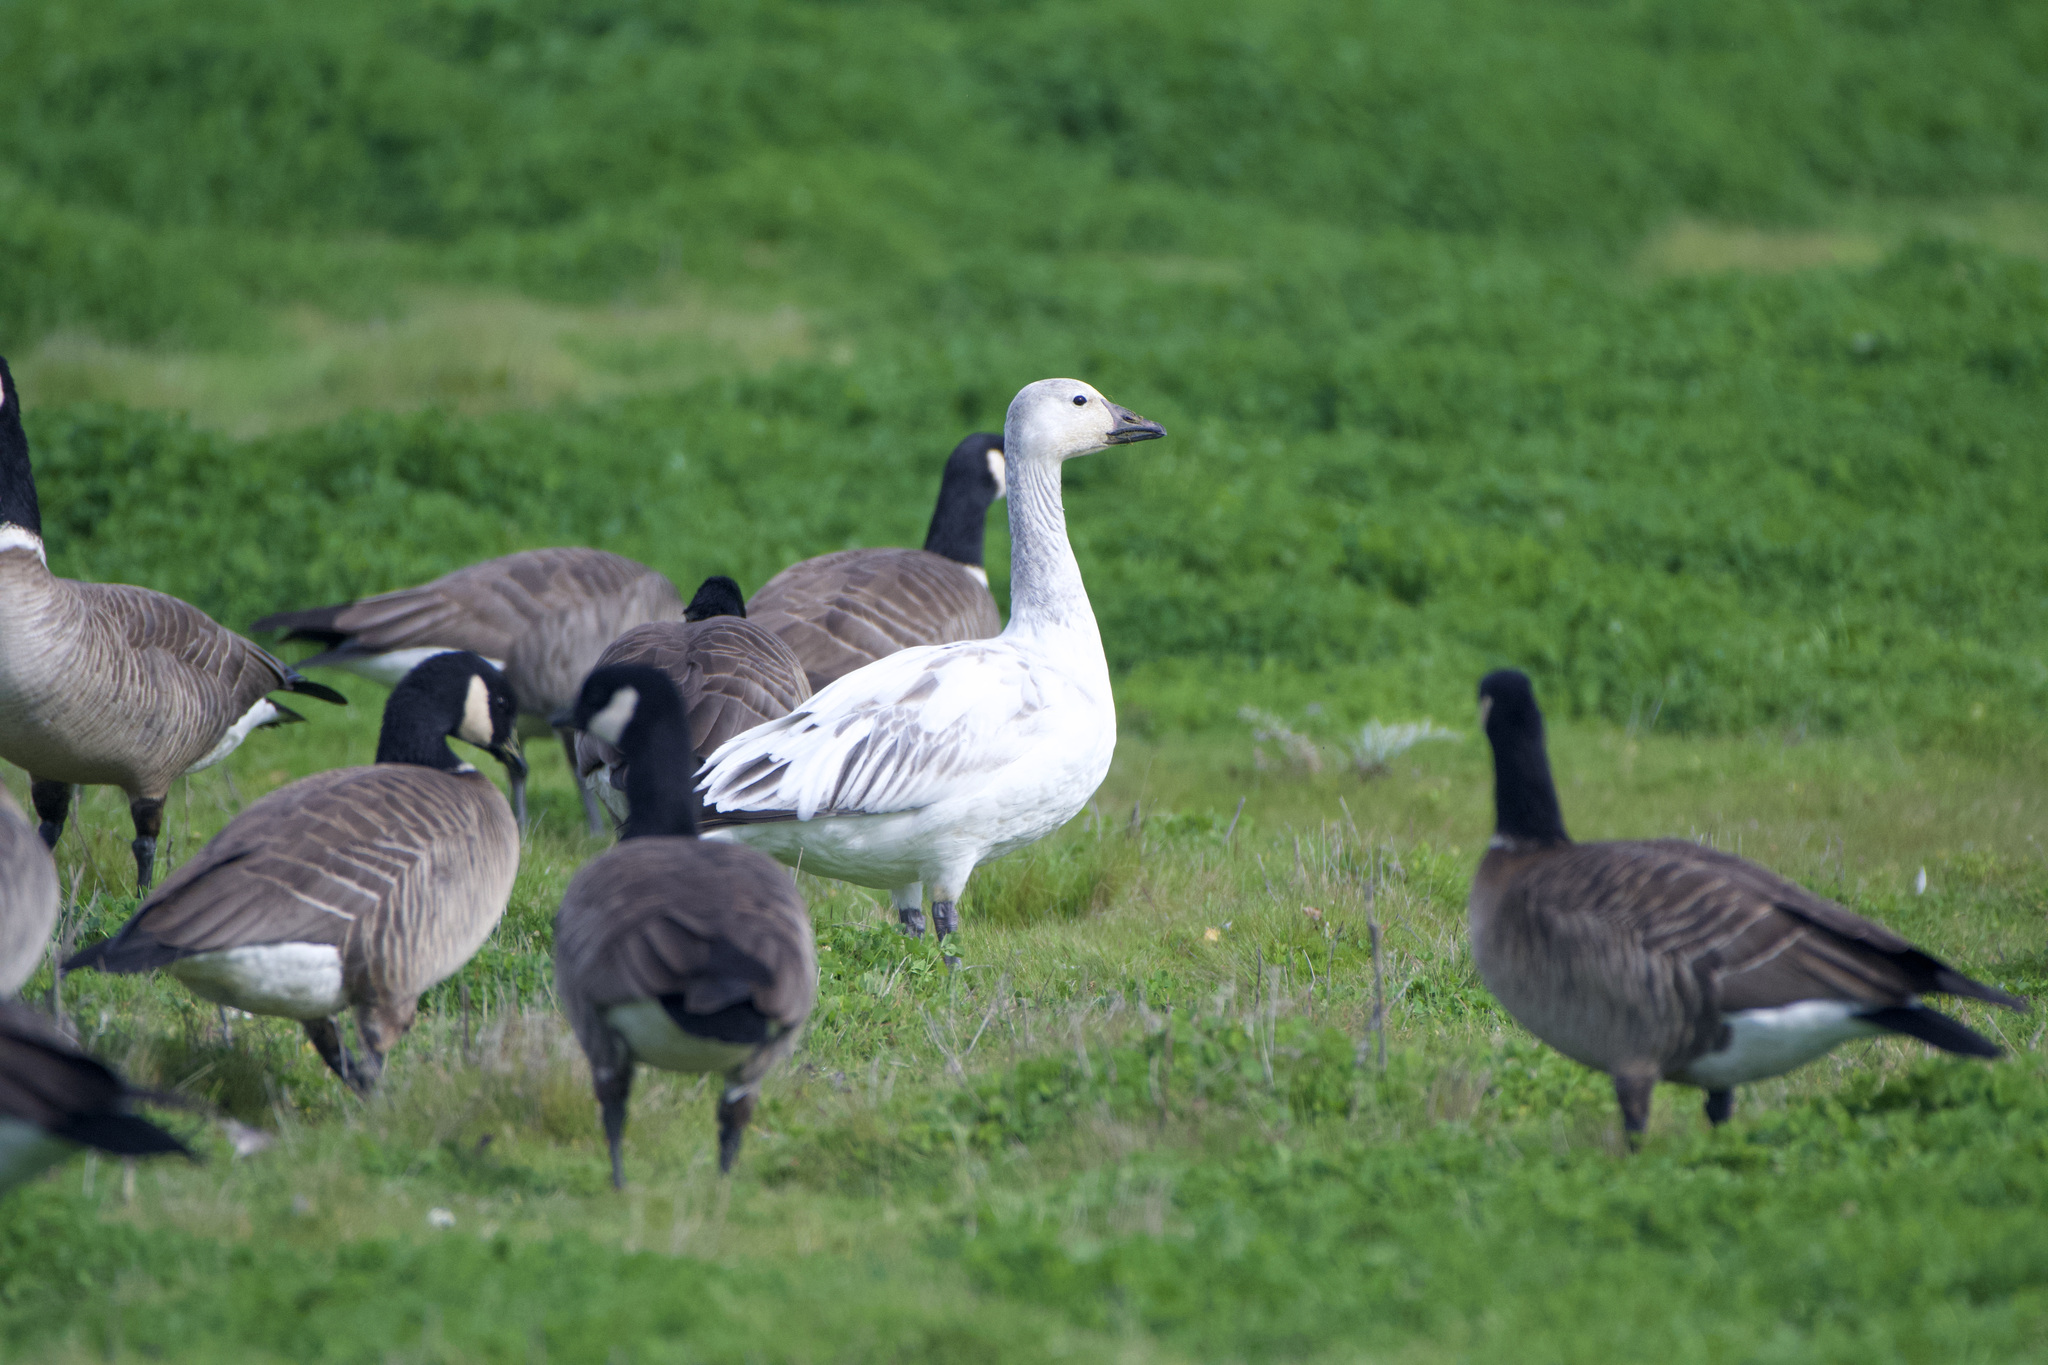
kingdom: Animalia
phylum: Chordata
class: Aves
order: Anseriformes
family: Anatidae
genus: Anser
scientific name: Anser caerulescens
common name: Snow goose
